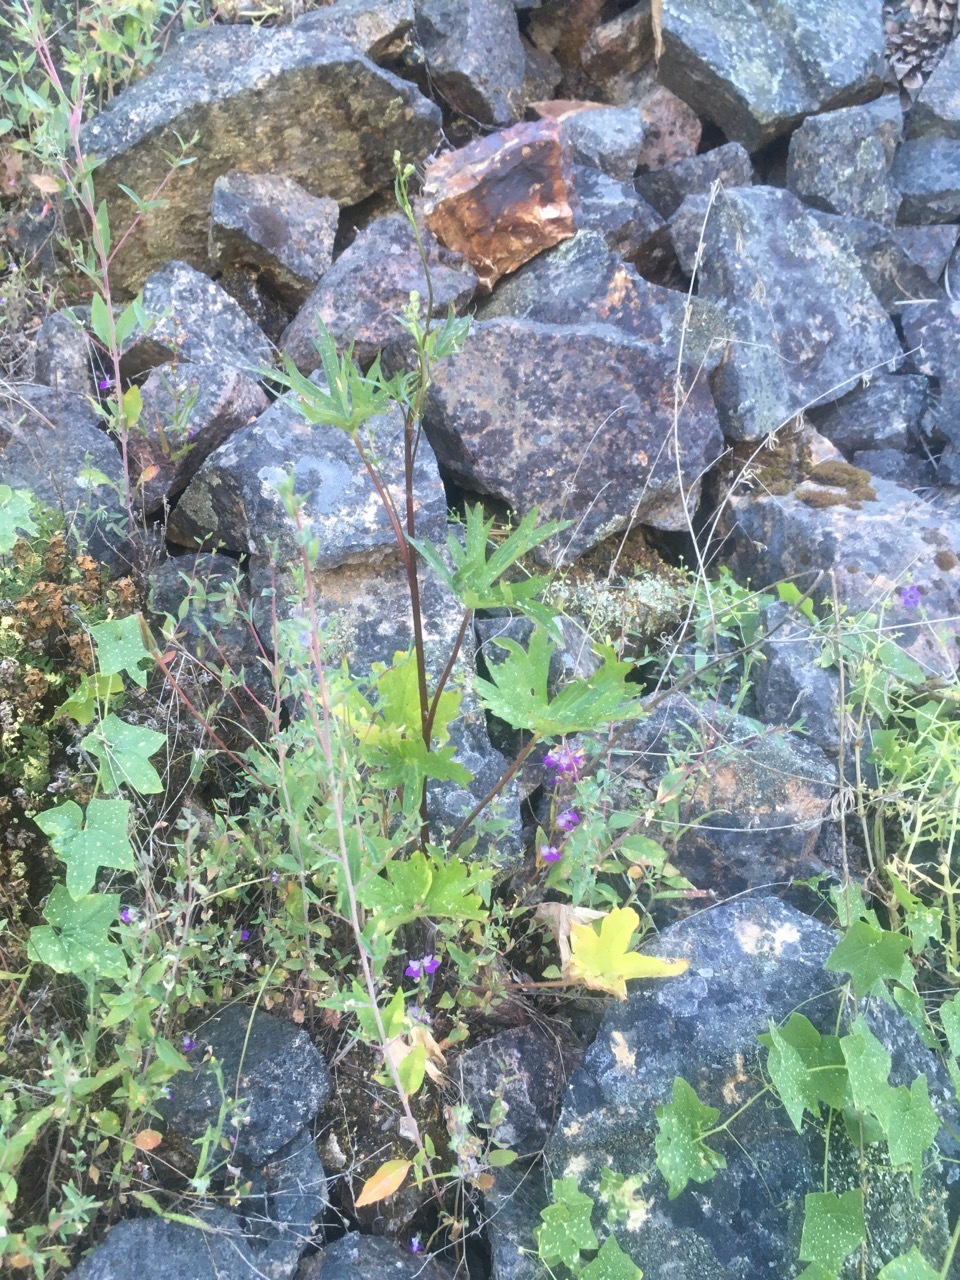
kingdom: Plantae
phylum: Tracheophyta
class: Magnoliopsida
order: Ranunculales
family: Ranunculaceae
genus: Delphinium
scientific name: Delphinium californicum
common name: California larkspur
